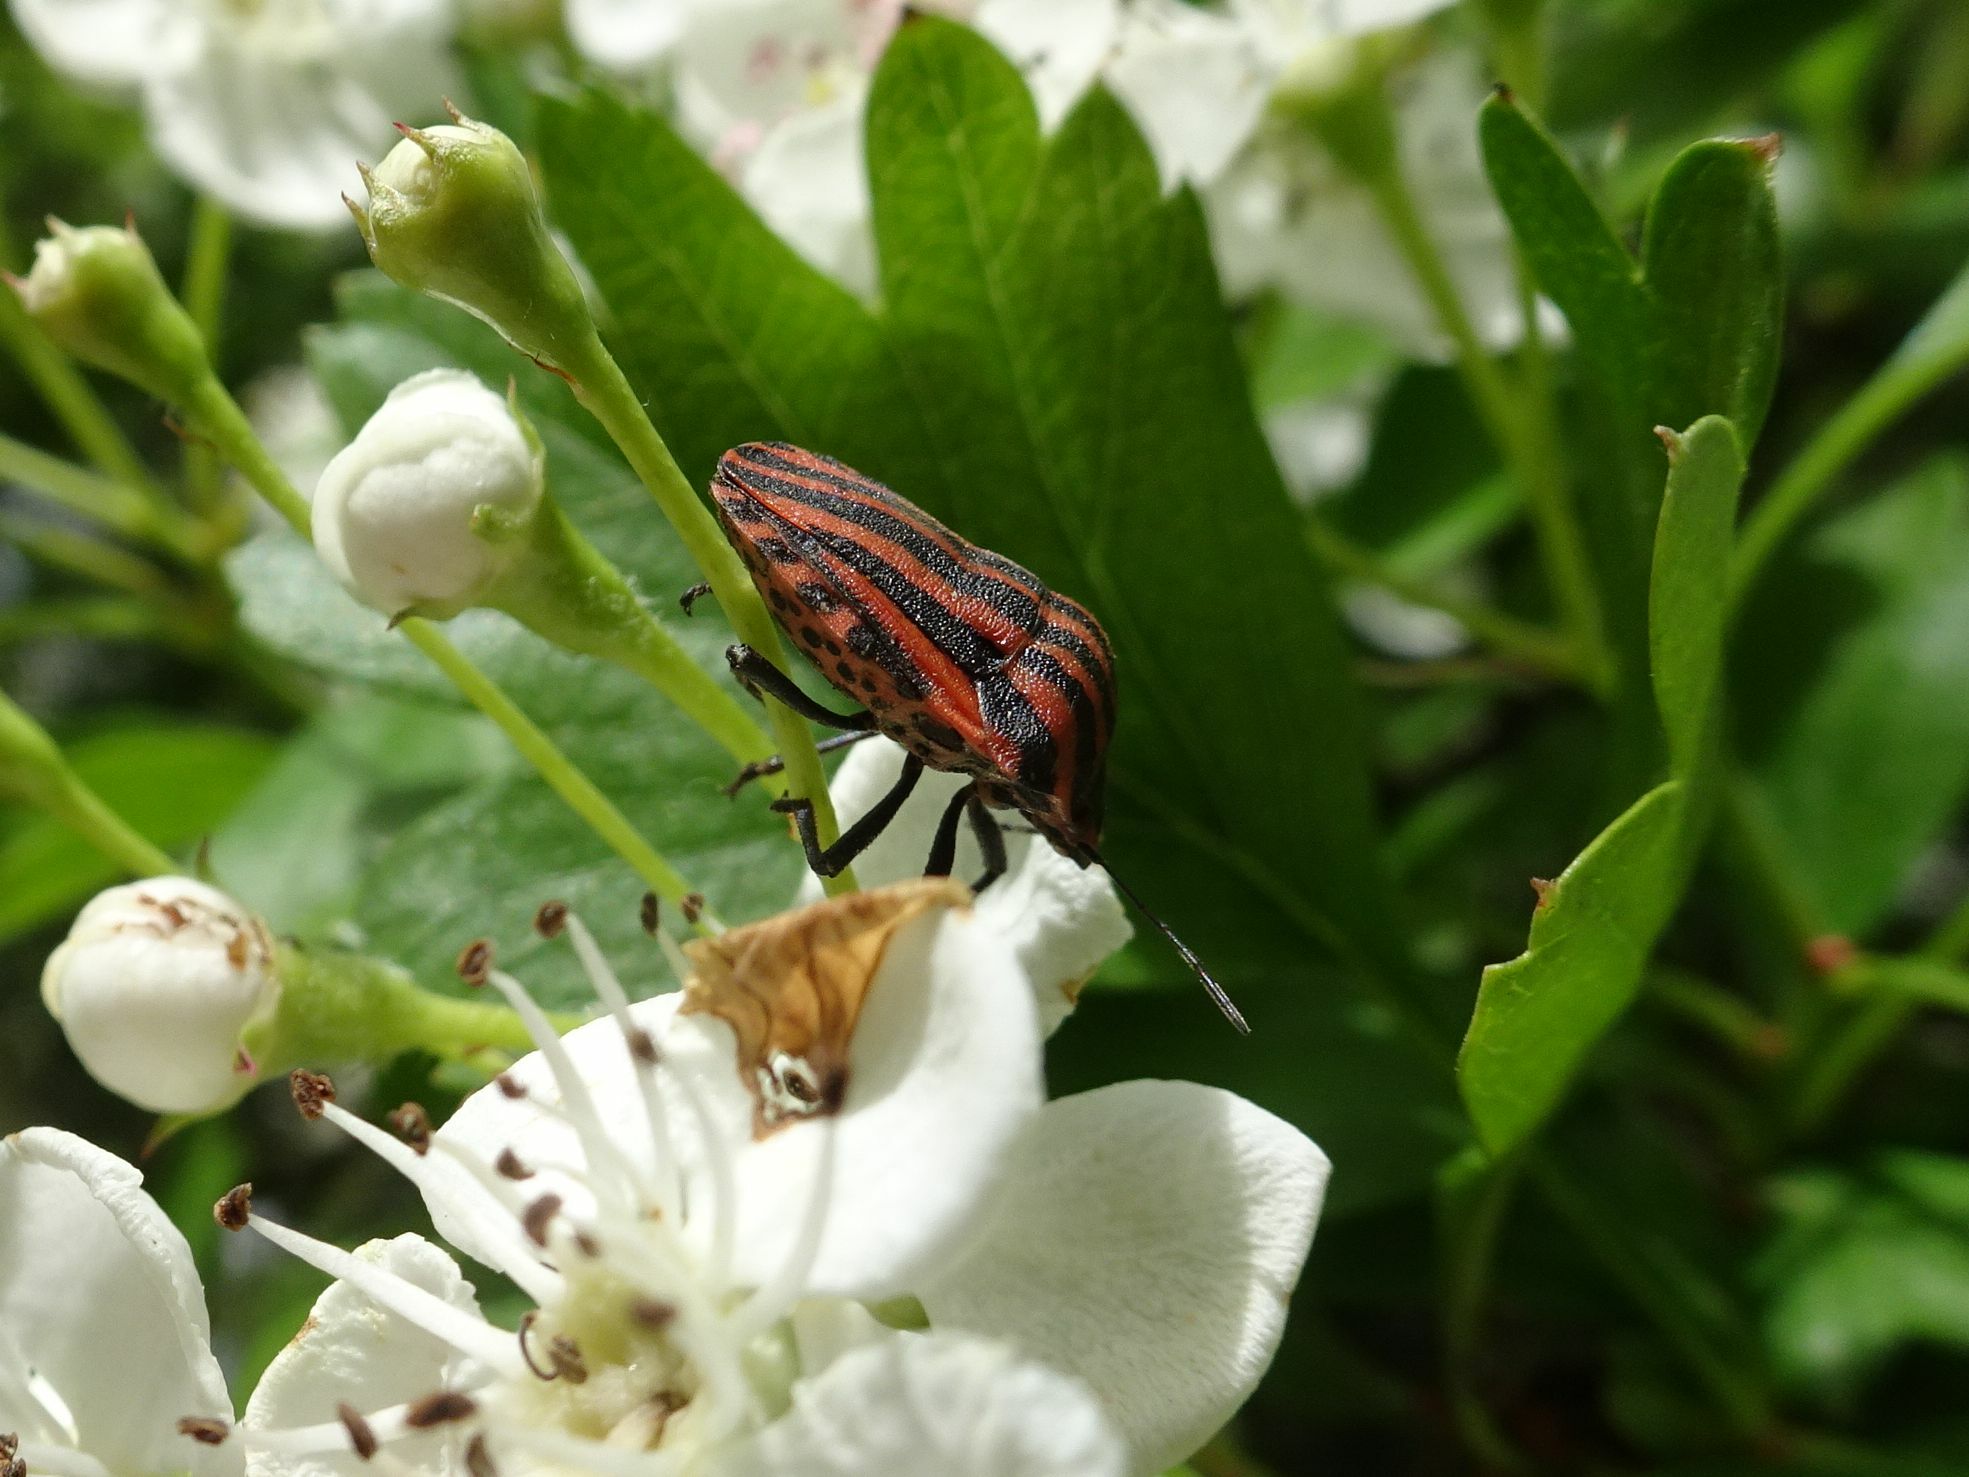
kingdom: Animalia
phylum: Arthropoda
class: Insecta
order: Hemiptera
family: Pentatomidae
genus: Graphosoma
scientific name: Graphosoma italicum
